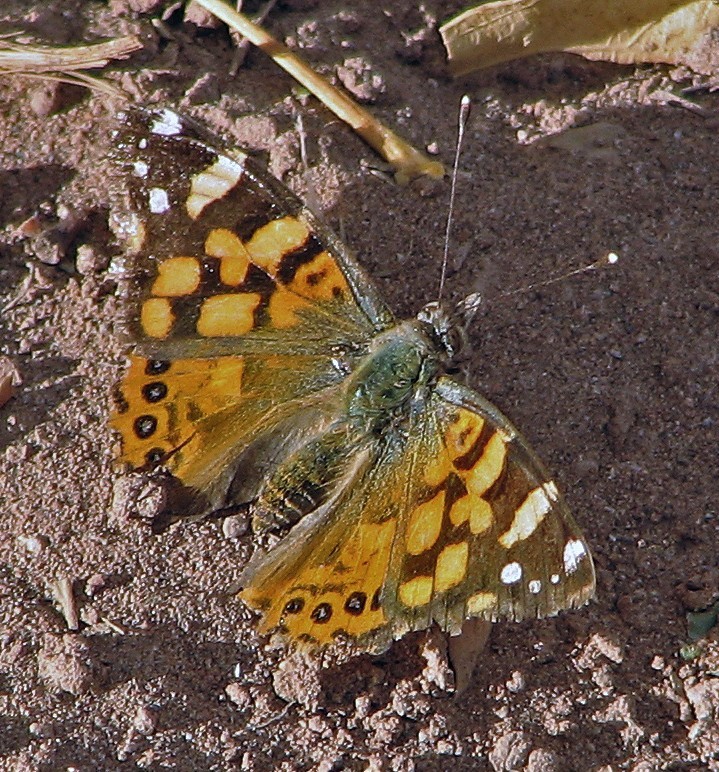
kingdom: Animalia
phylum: Arthropoda
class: Insecta
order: Lepidoptera
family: Nymphalidae
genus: Vanessa
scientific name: Vanessa carye
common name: Subtropical lady
